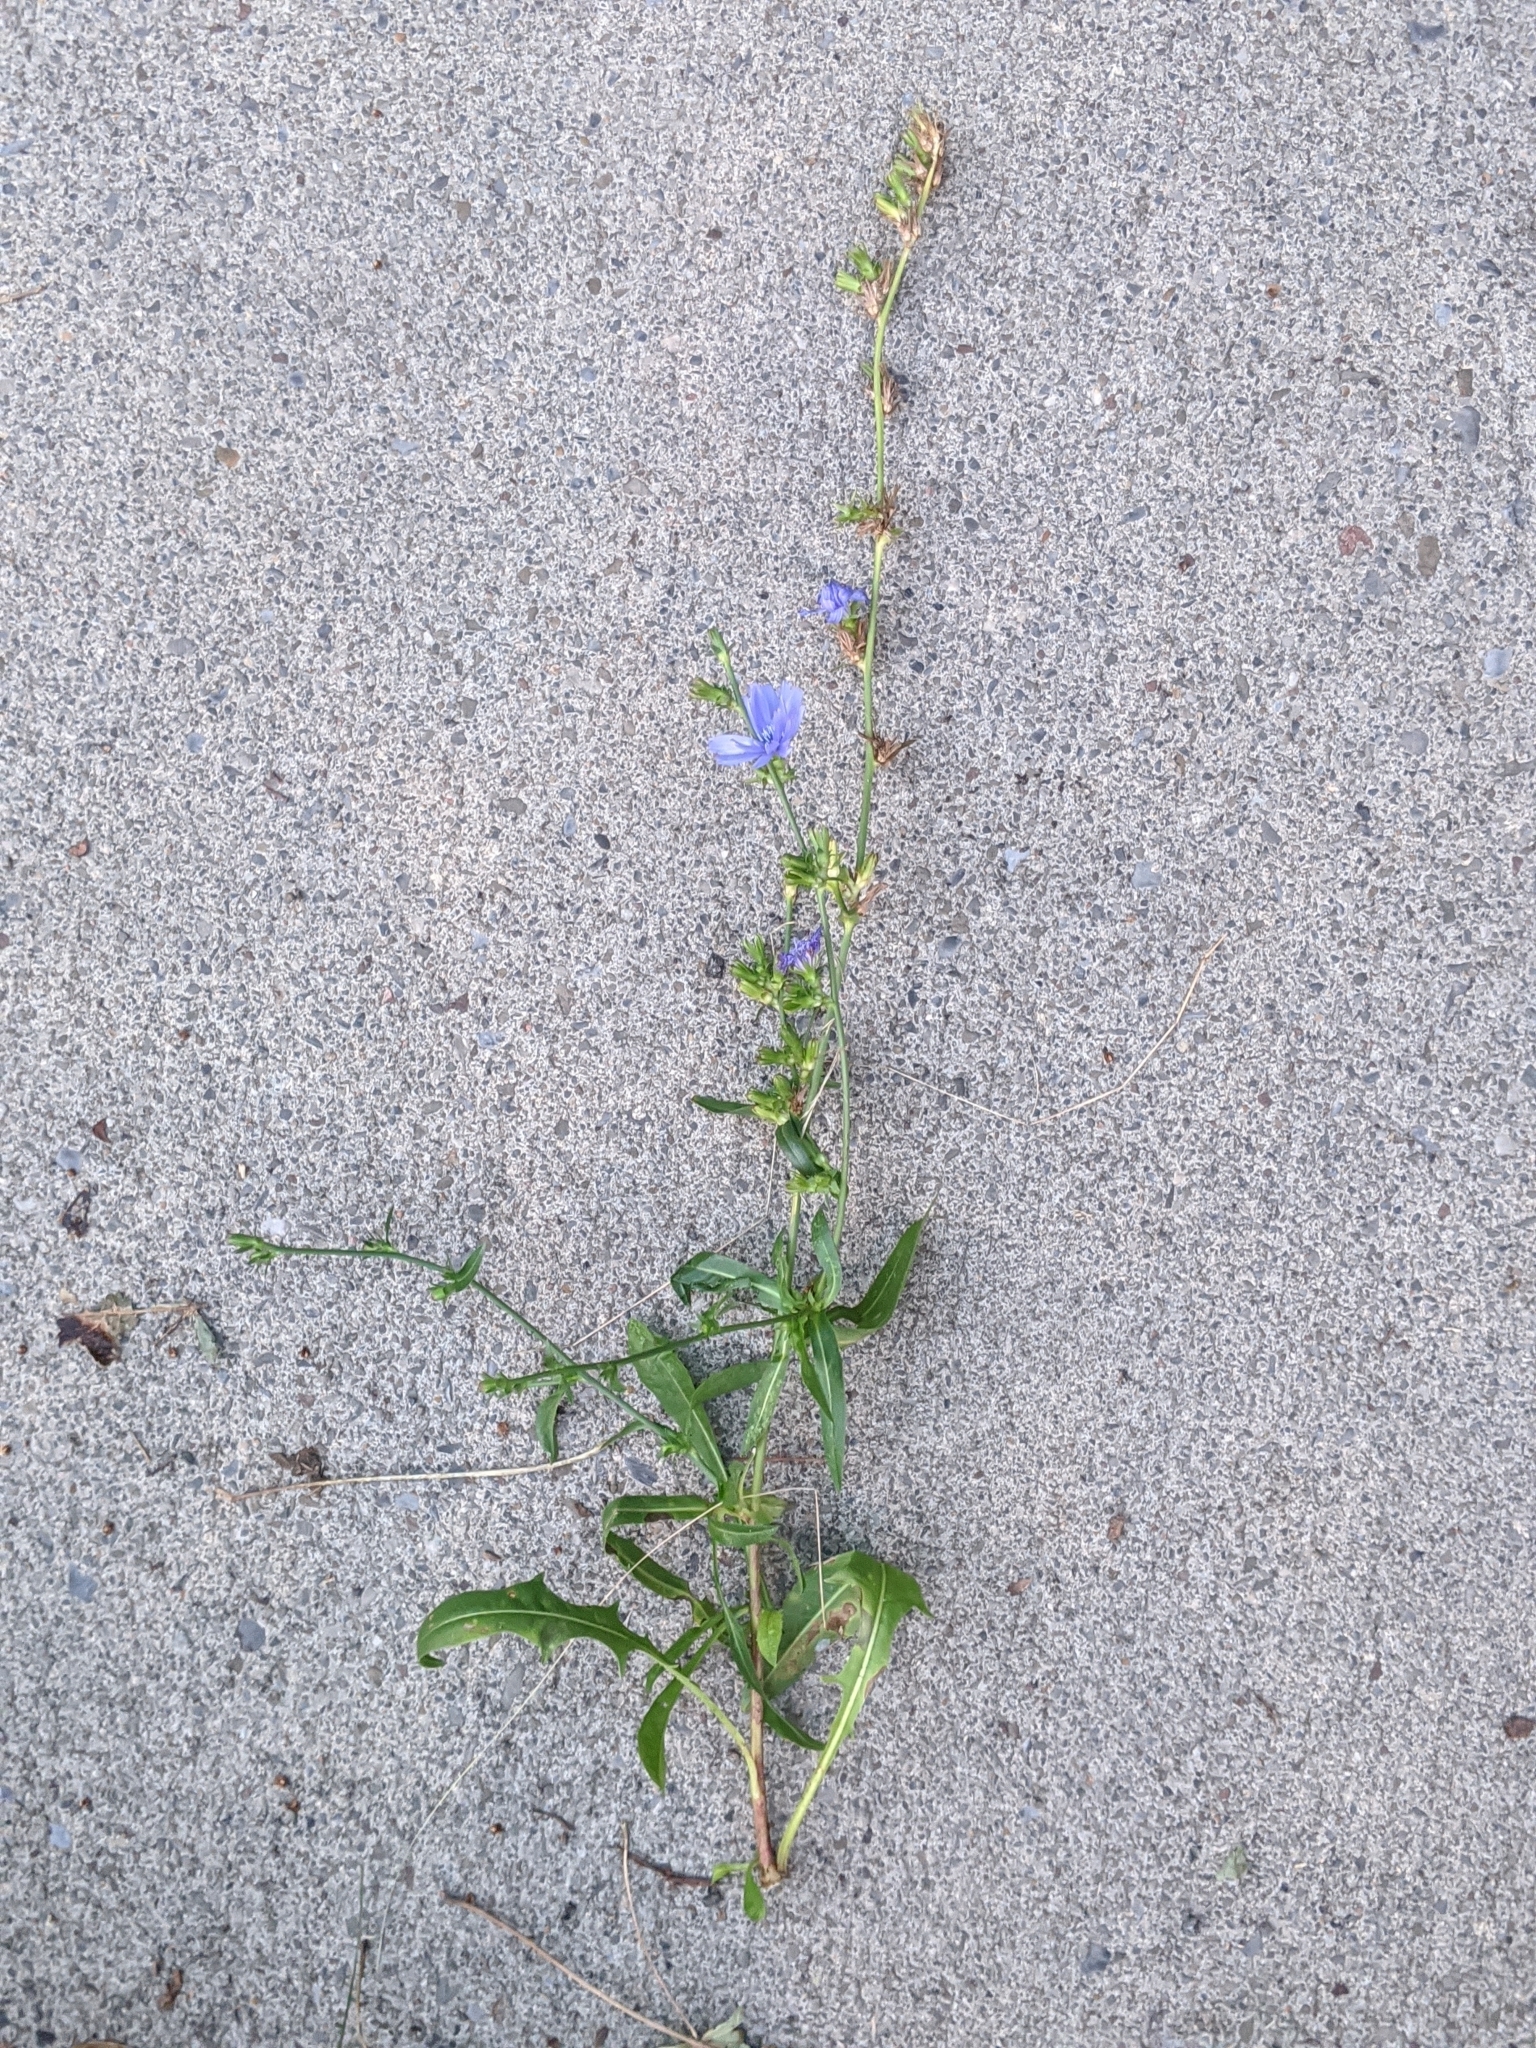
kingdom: Plantae
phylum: Tracheophyta
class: Magnoliopsida
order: Asterales
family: Asteraceae
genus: Cichorium
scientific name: Cichorium intybus
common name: Chicory
